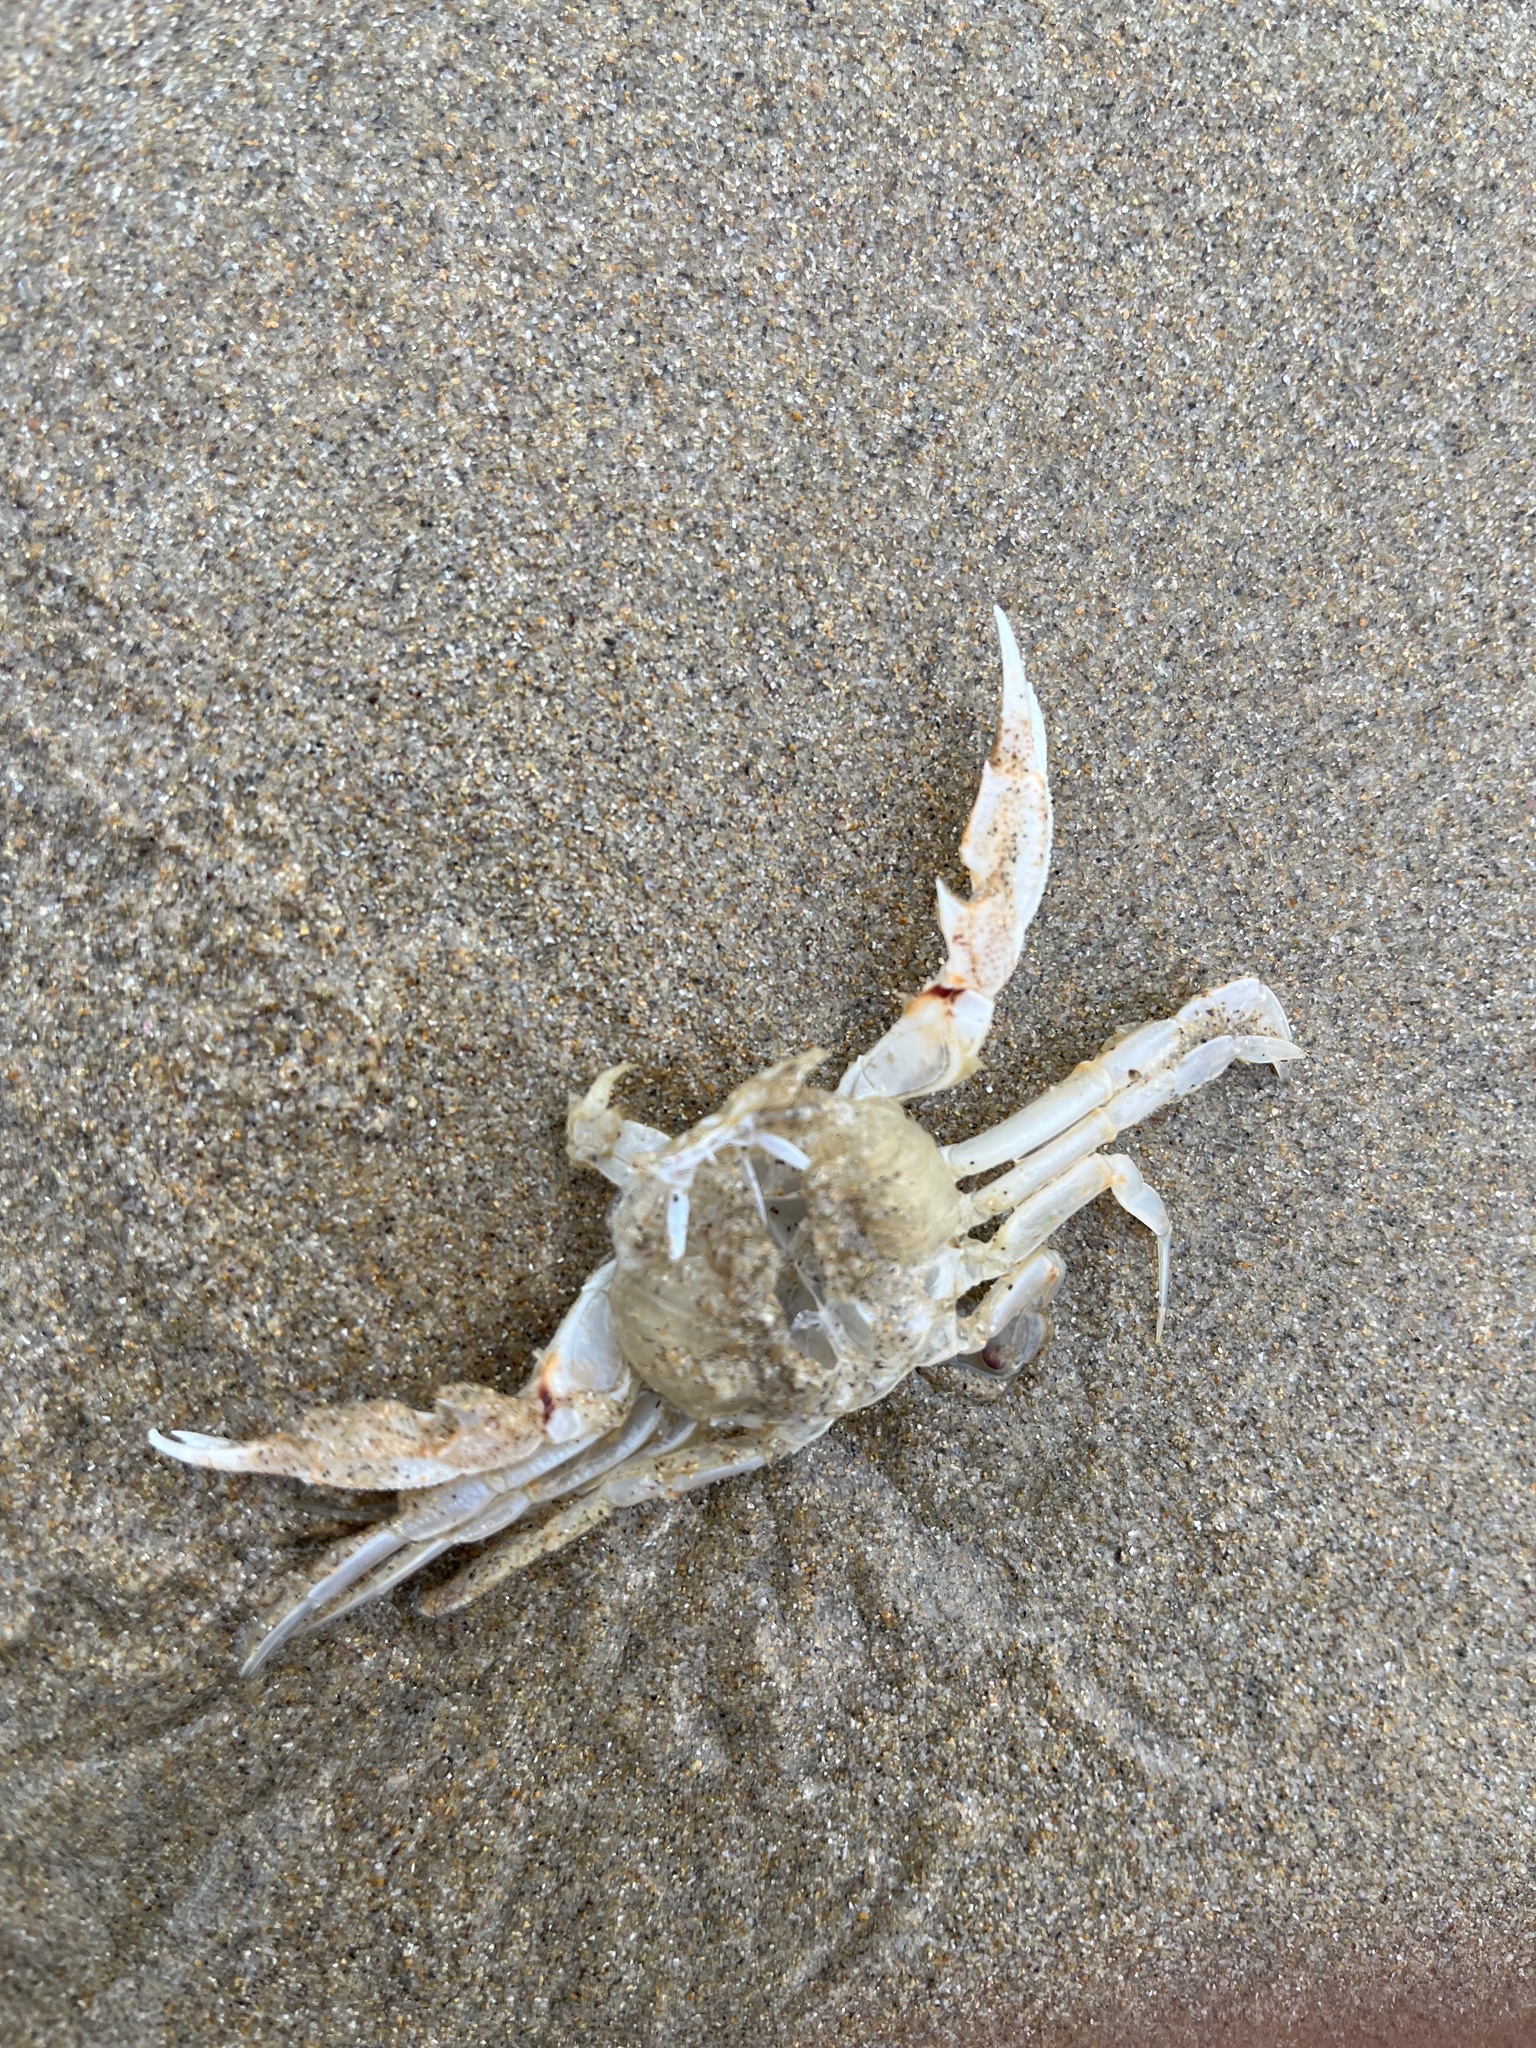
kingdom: Animalia
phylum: Arthropoda
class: Malacostraca
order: Decapoda
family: Ovalipidae
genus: Ovalipes
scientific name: Ovalipes australiensis
